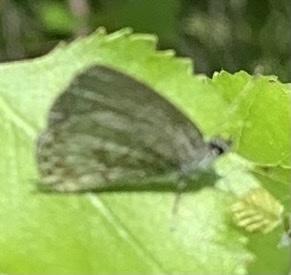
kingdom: Animalia
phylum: Arthropoda
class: Insecta
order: Lepidoptera
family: Lycaenidae
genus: Celastrina
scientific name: Celastrina lucia
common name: Lucia azure
